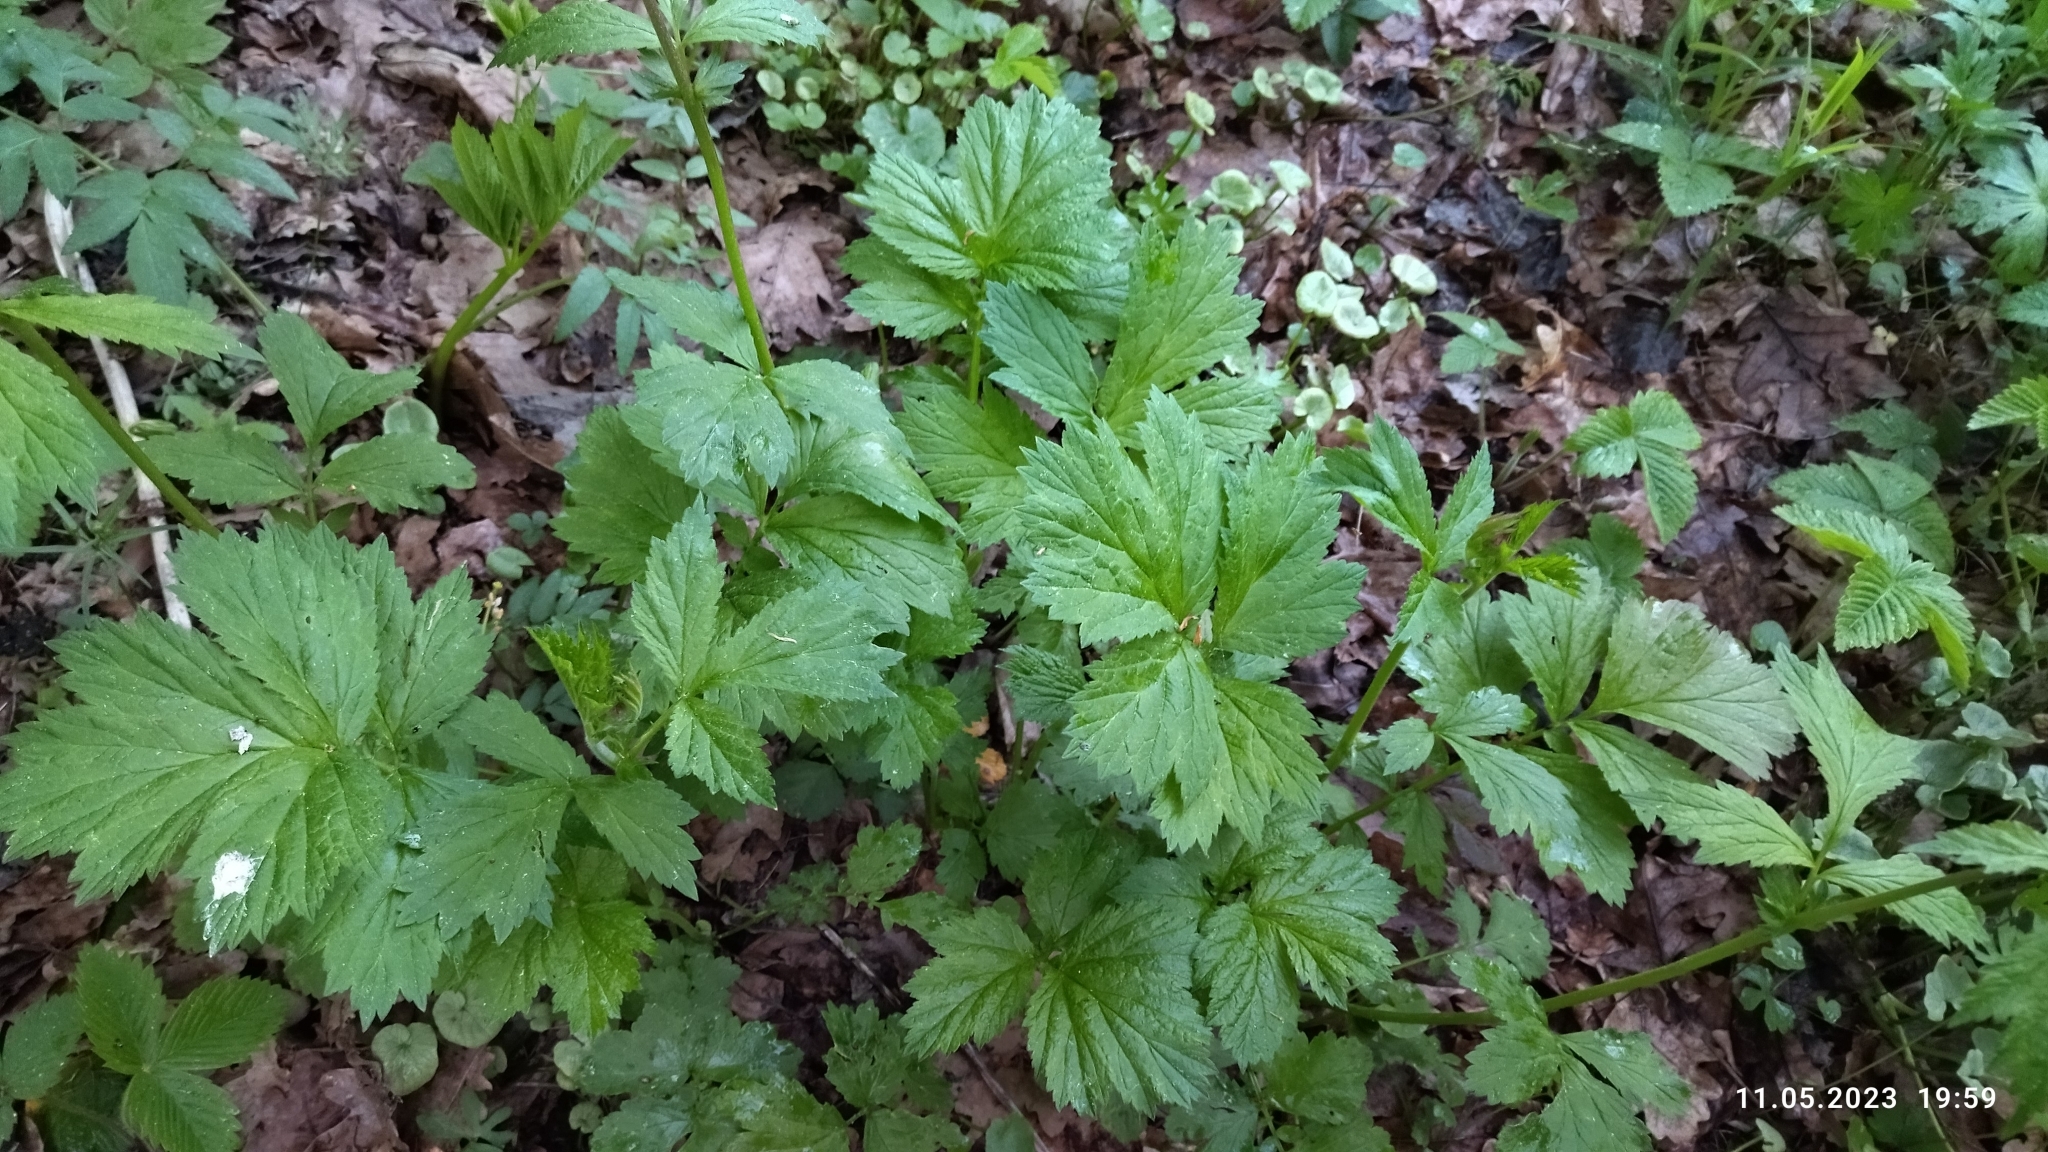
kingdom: Plantae
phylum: Tracheophyta
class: Magnoliopsida
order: Rosales
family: Rosaceae
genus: Geum
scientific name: Geum rivale
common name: Water avens
